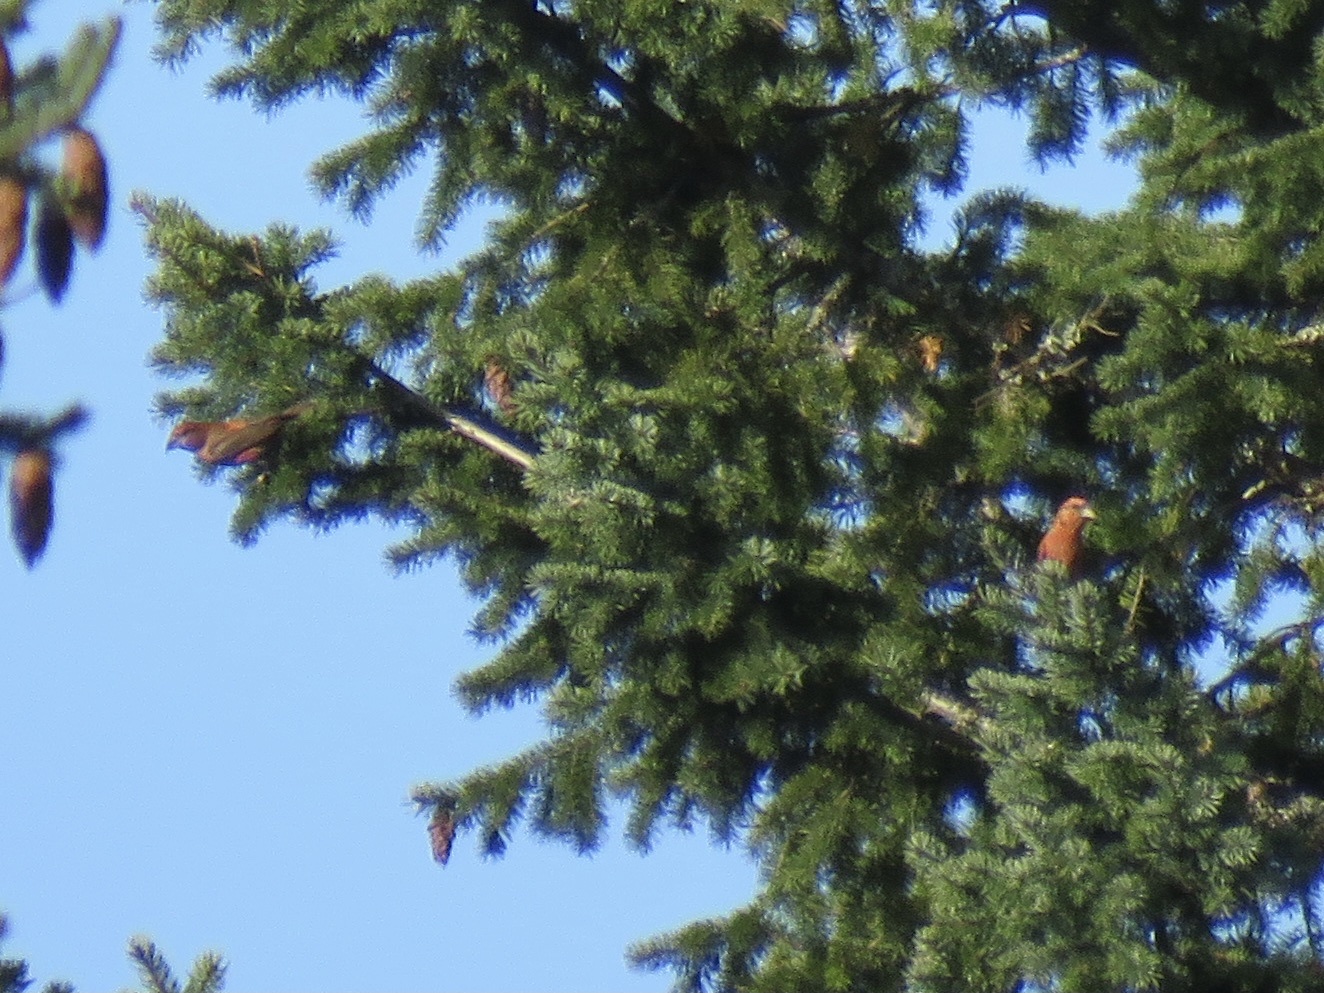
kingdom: Animalia
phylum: Chordata
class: Aves
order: Passeriformes
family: Fringillidae
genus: Loxia
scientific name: Loxia curvirostra
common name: Red crossbill
